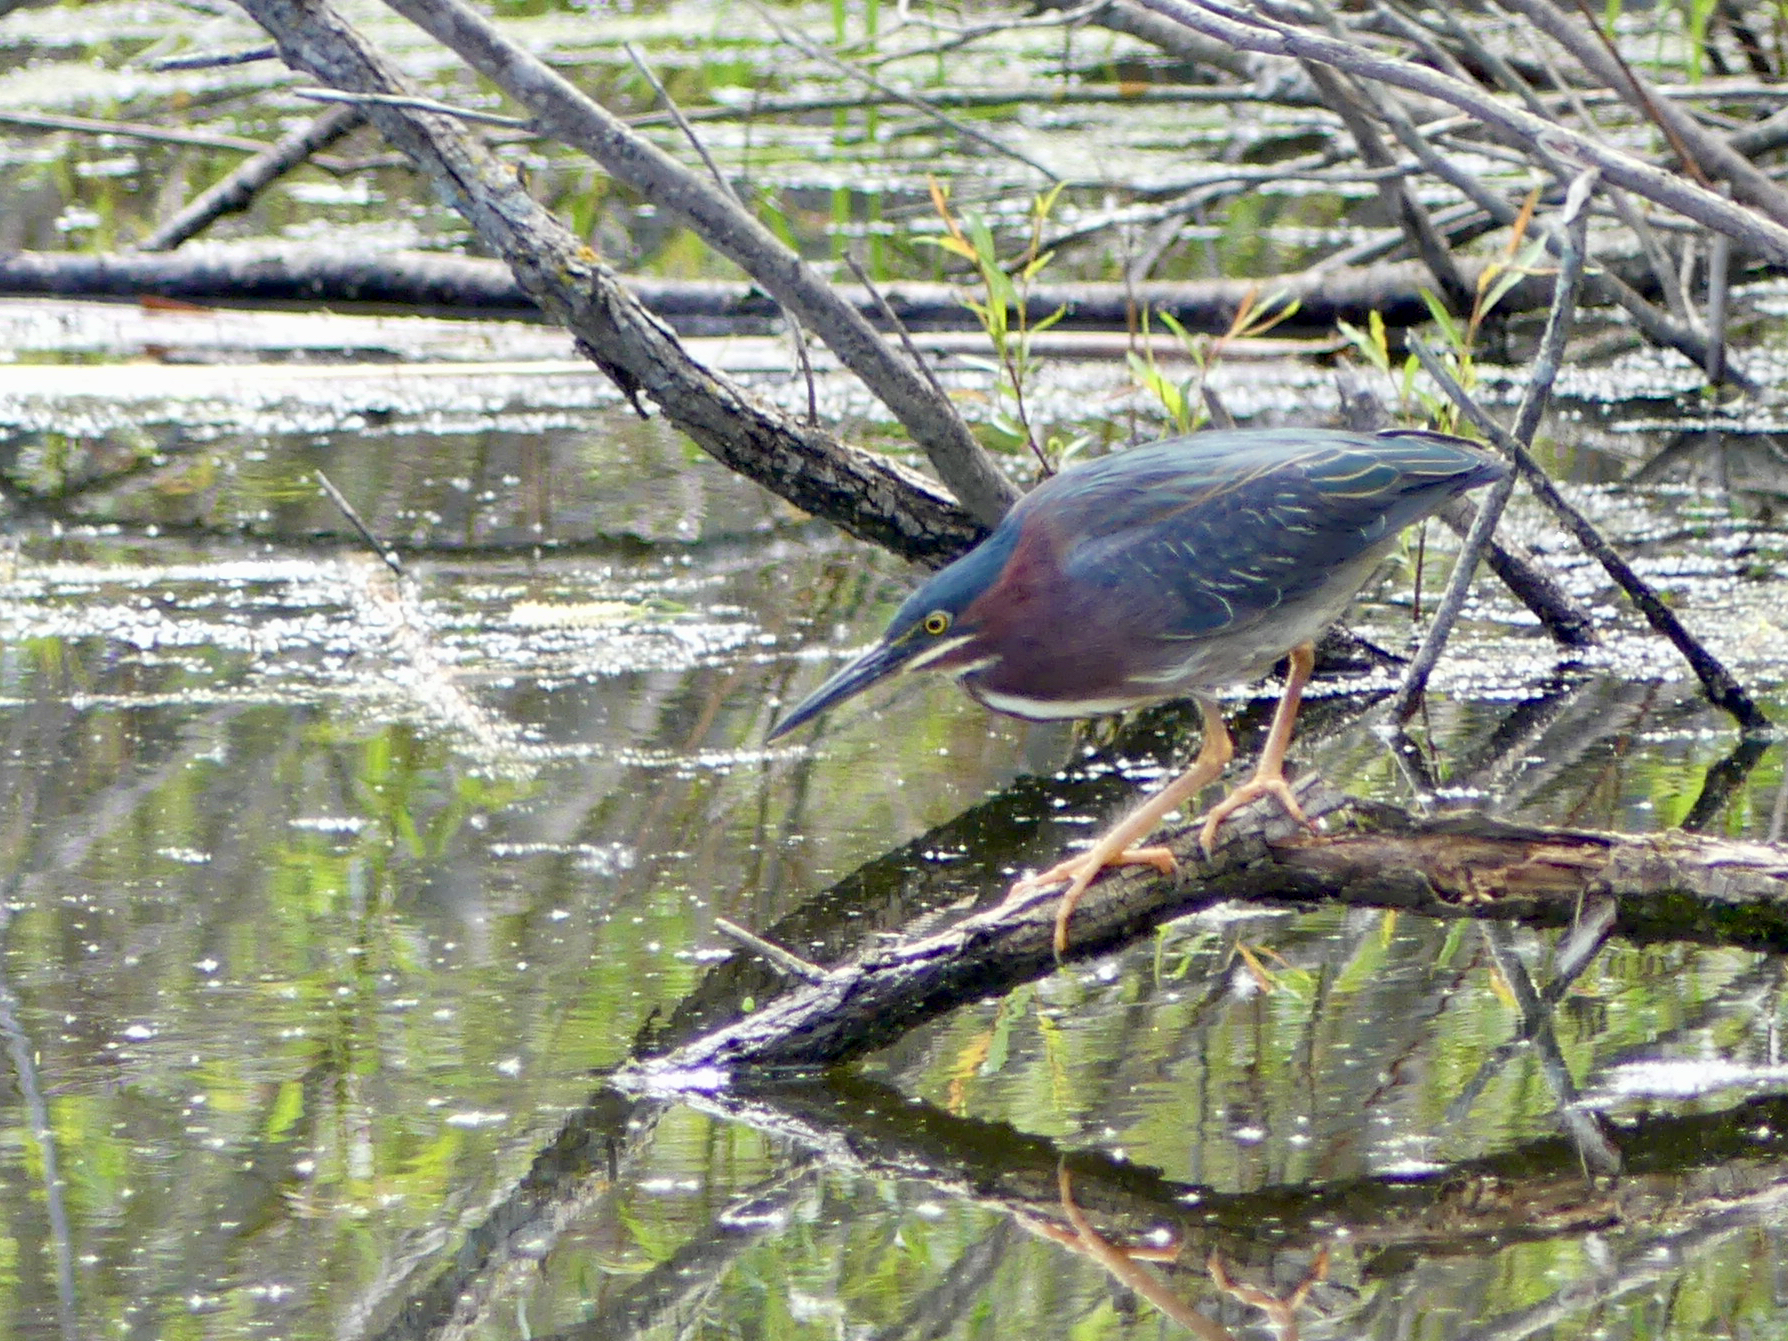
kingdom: Animalia
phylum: Chordata
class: Aves
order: Pelecaniformes
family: Ardeidae
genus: Butorides
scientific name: Butorides virescens
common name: Green heron
